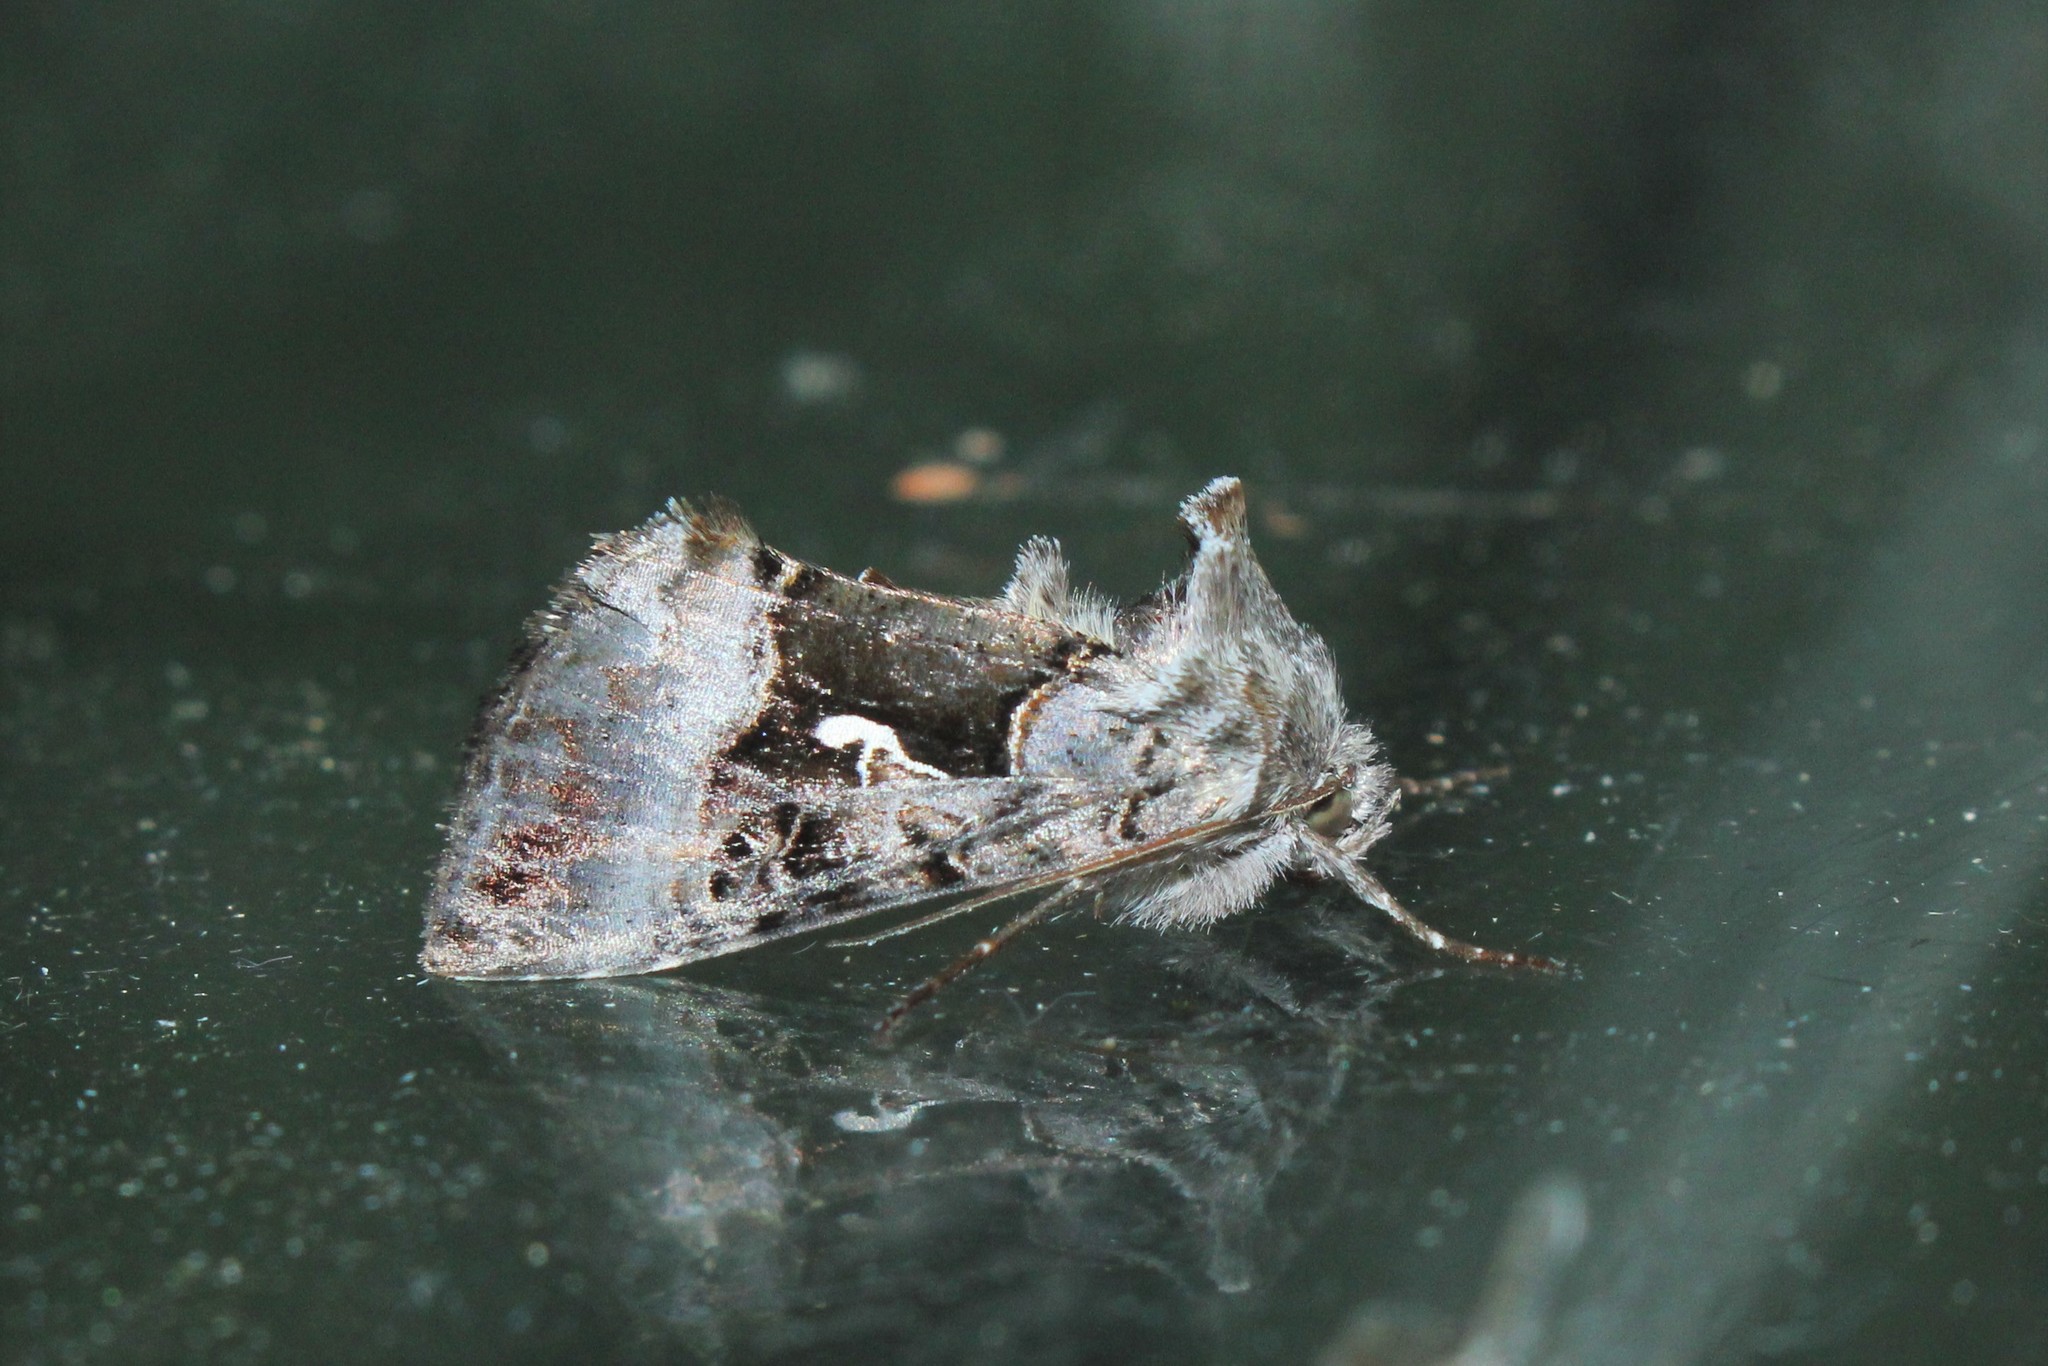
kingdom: Animalia
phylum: Arthropoda
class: Insecta
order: Lepidoptera
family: Noctuidae
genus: Syngrapha
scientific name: Syngrapha microgamma
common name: Small gamma looper moth
